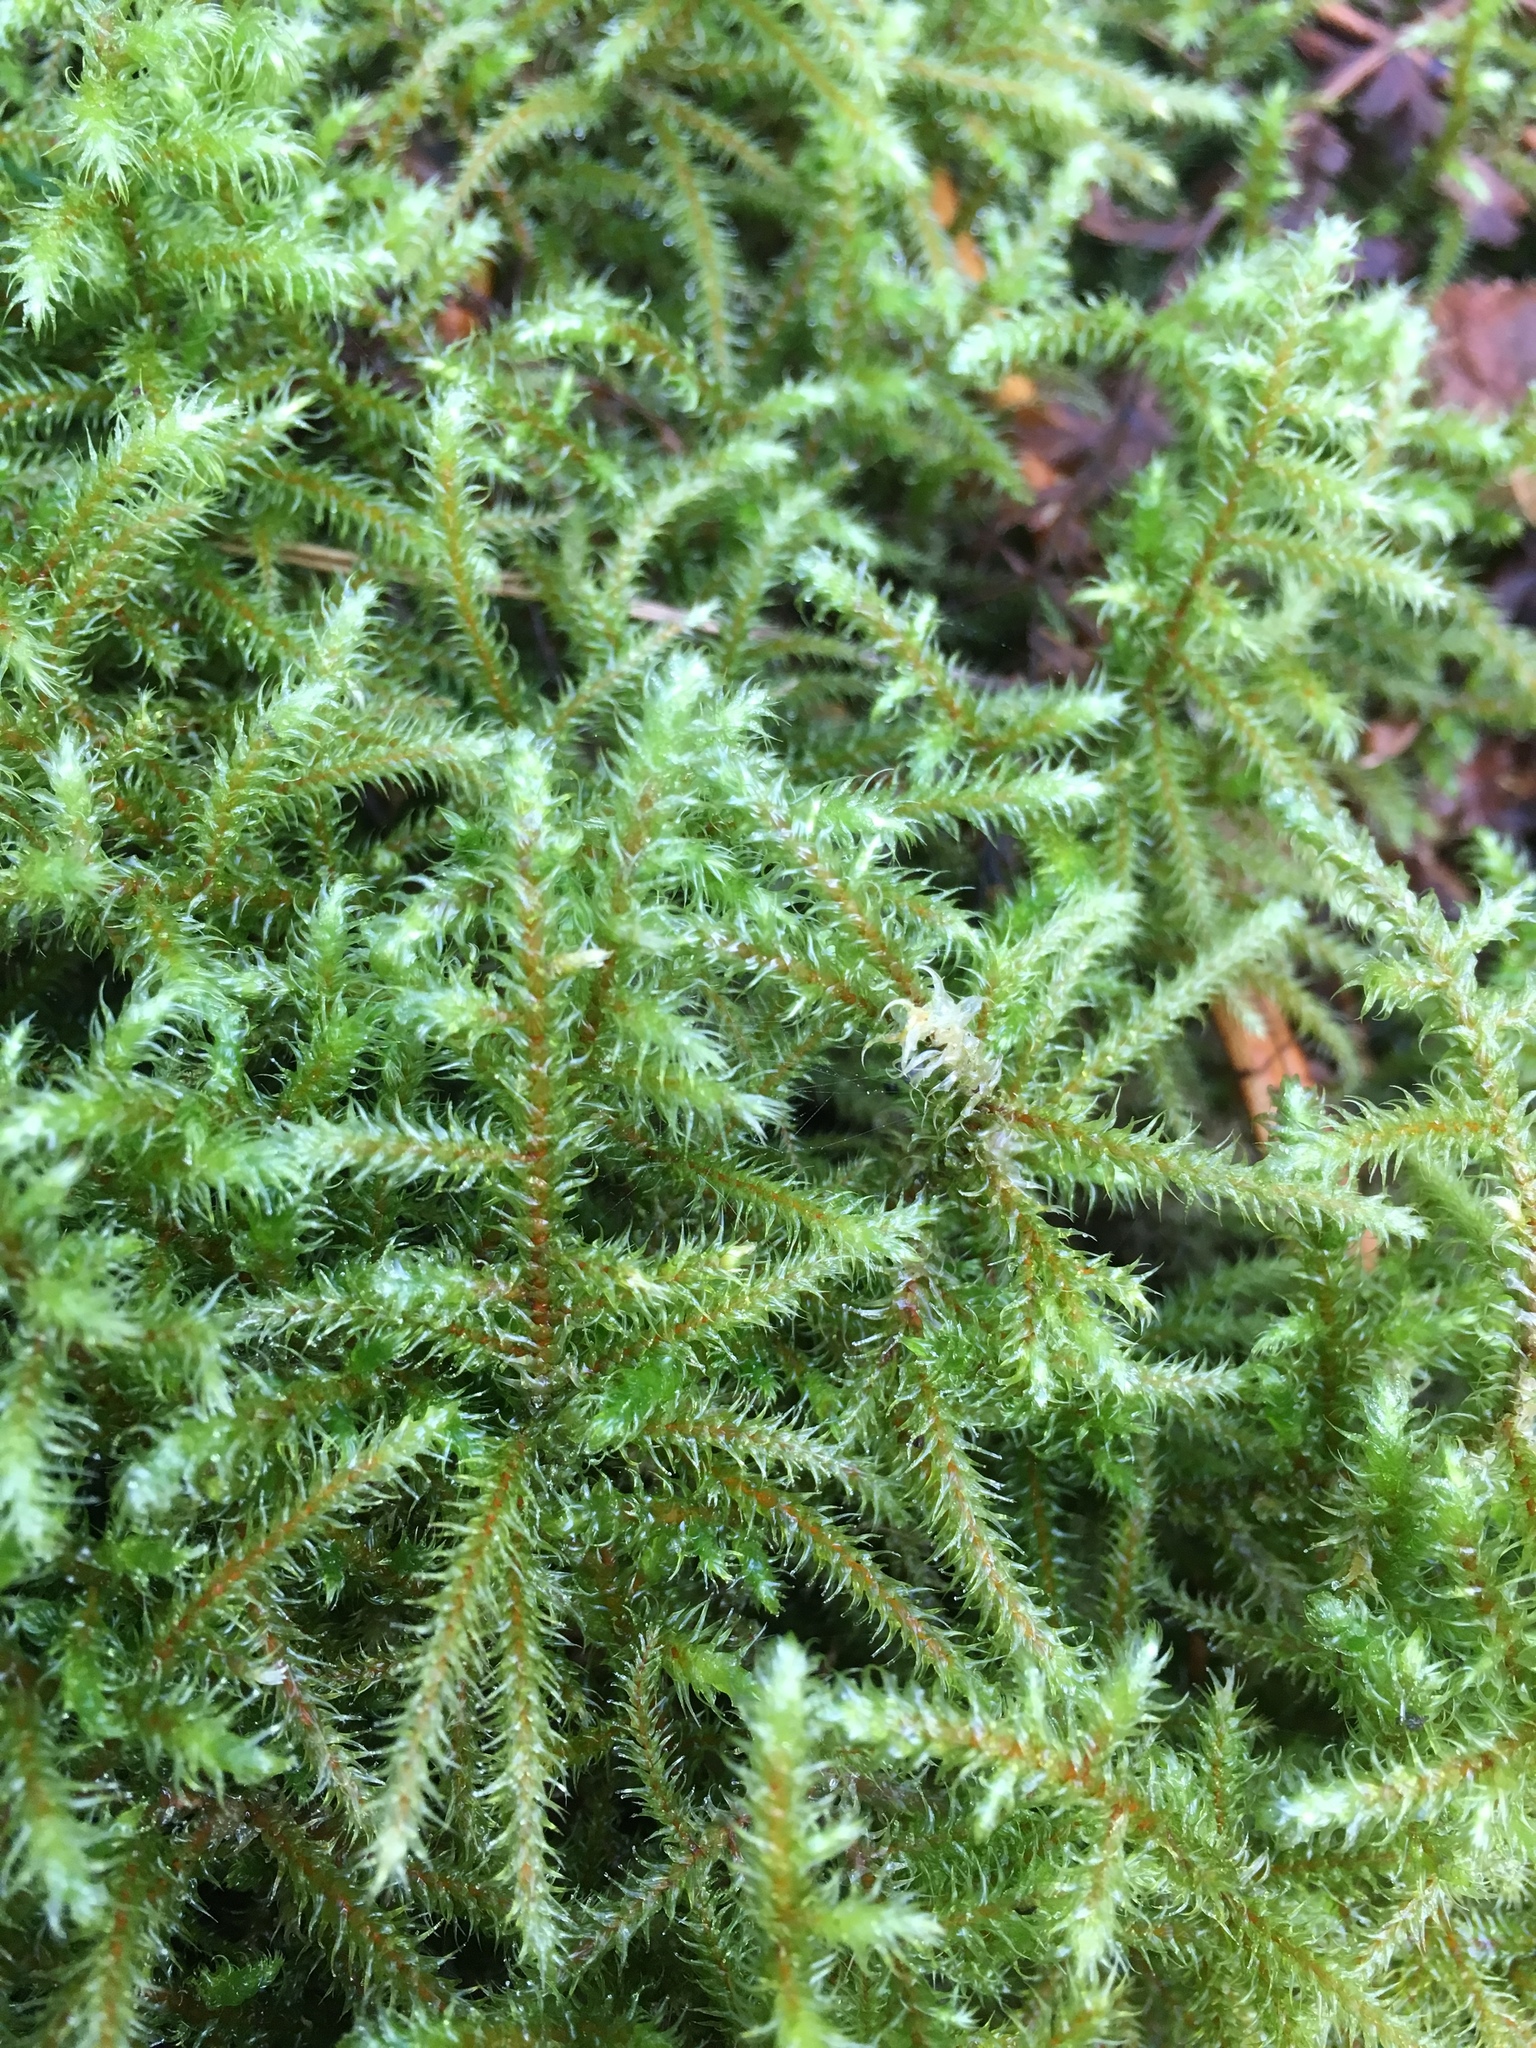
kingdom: Plantae
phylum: Bryophyta
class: Bryopsida
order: Hypnales
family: Hylocomiaceae
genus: Rhytidiadelphus
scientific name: Rhytidiadelphus loreus
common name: Lanky moss
